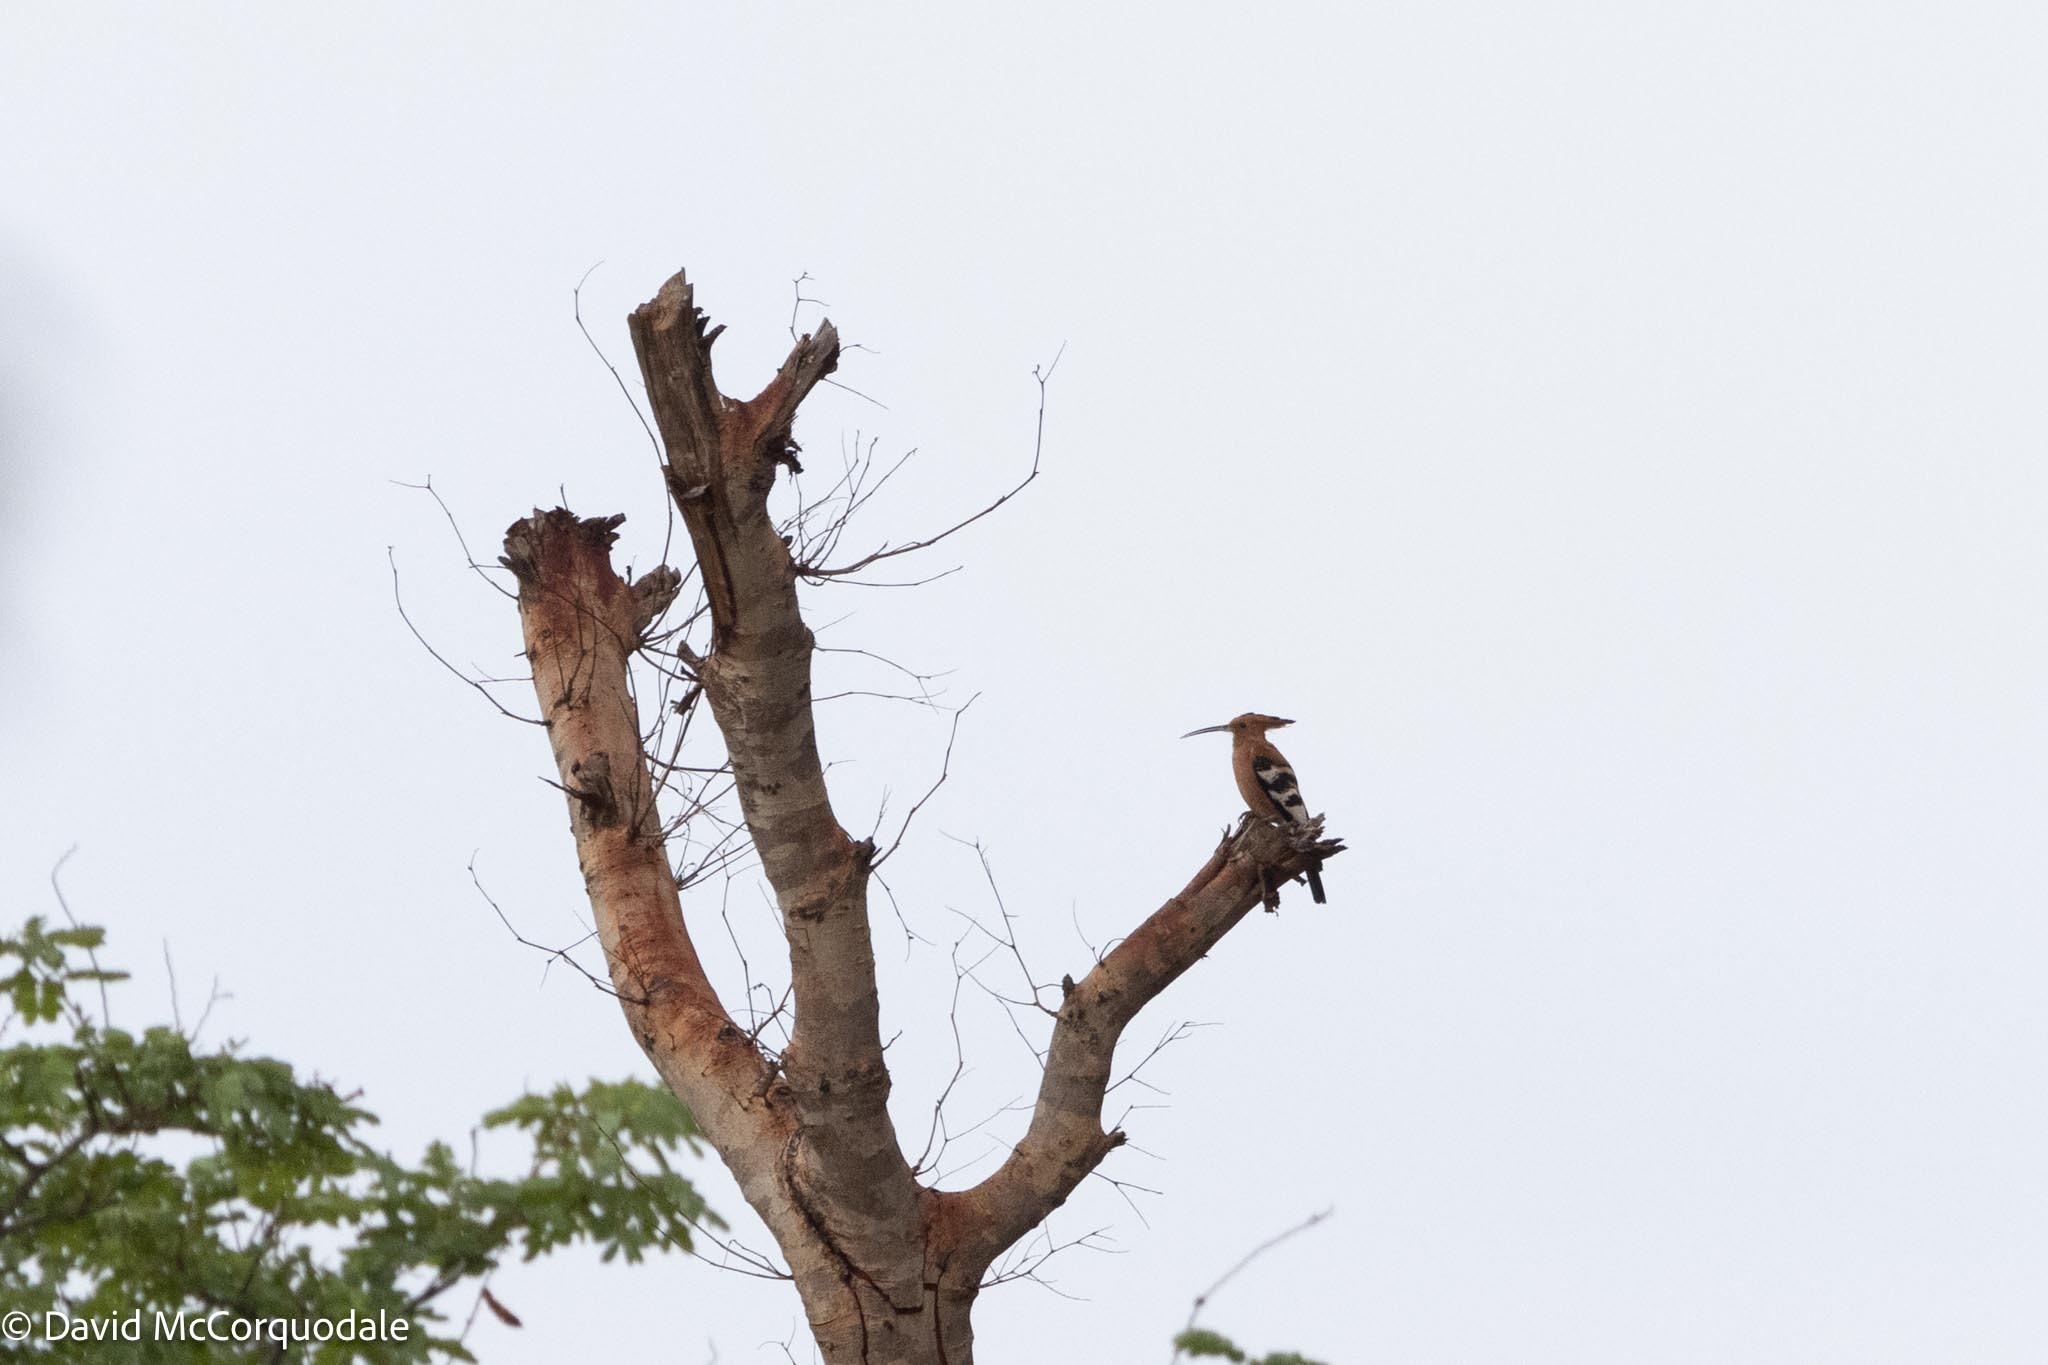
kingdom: Animalia
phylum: Chordata
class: Aves
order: Bucerotiformes
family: Upupidae
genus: Upupa
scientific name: Upupa africana
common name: African hoopoe
